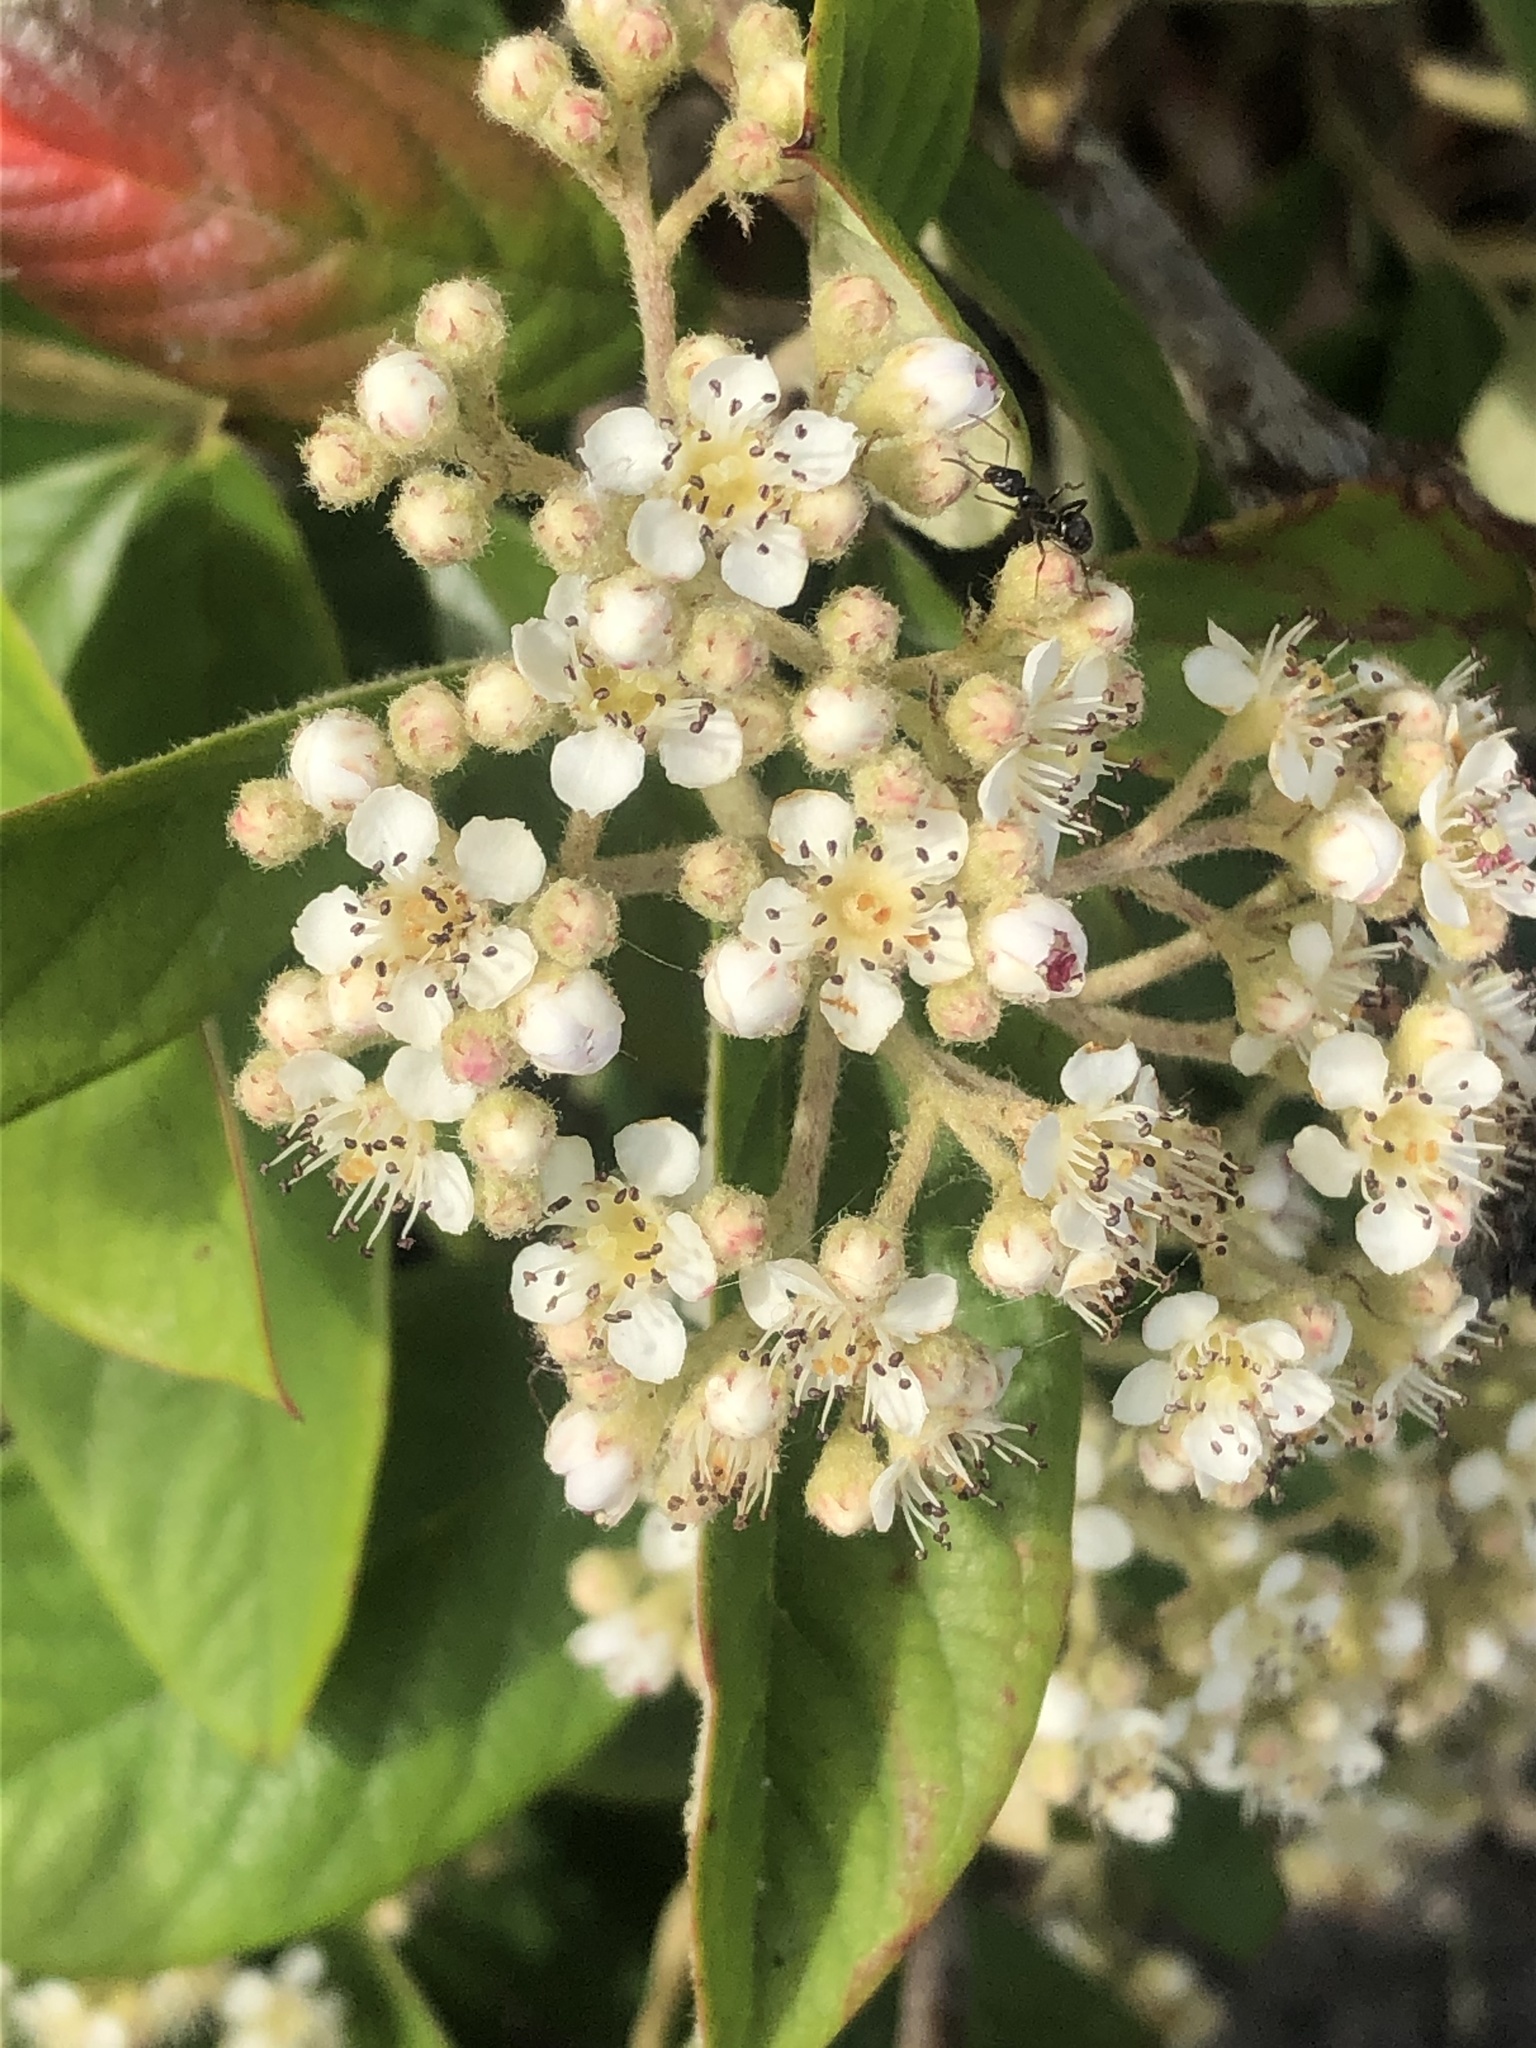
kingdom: Plantae
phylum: Tracheophyta
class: Magnoliopsida
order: Rosales
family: Rosaceae
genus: Cotoneaster
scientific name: Cotoneaster coriaceus
